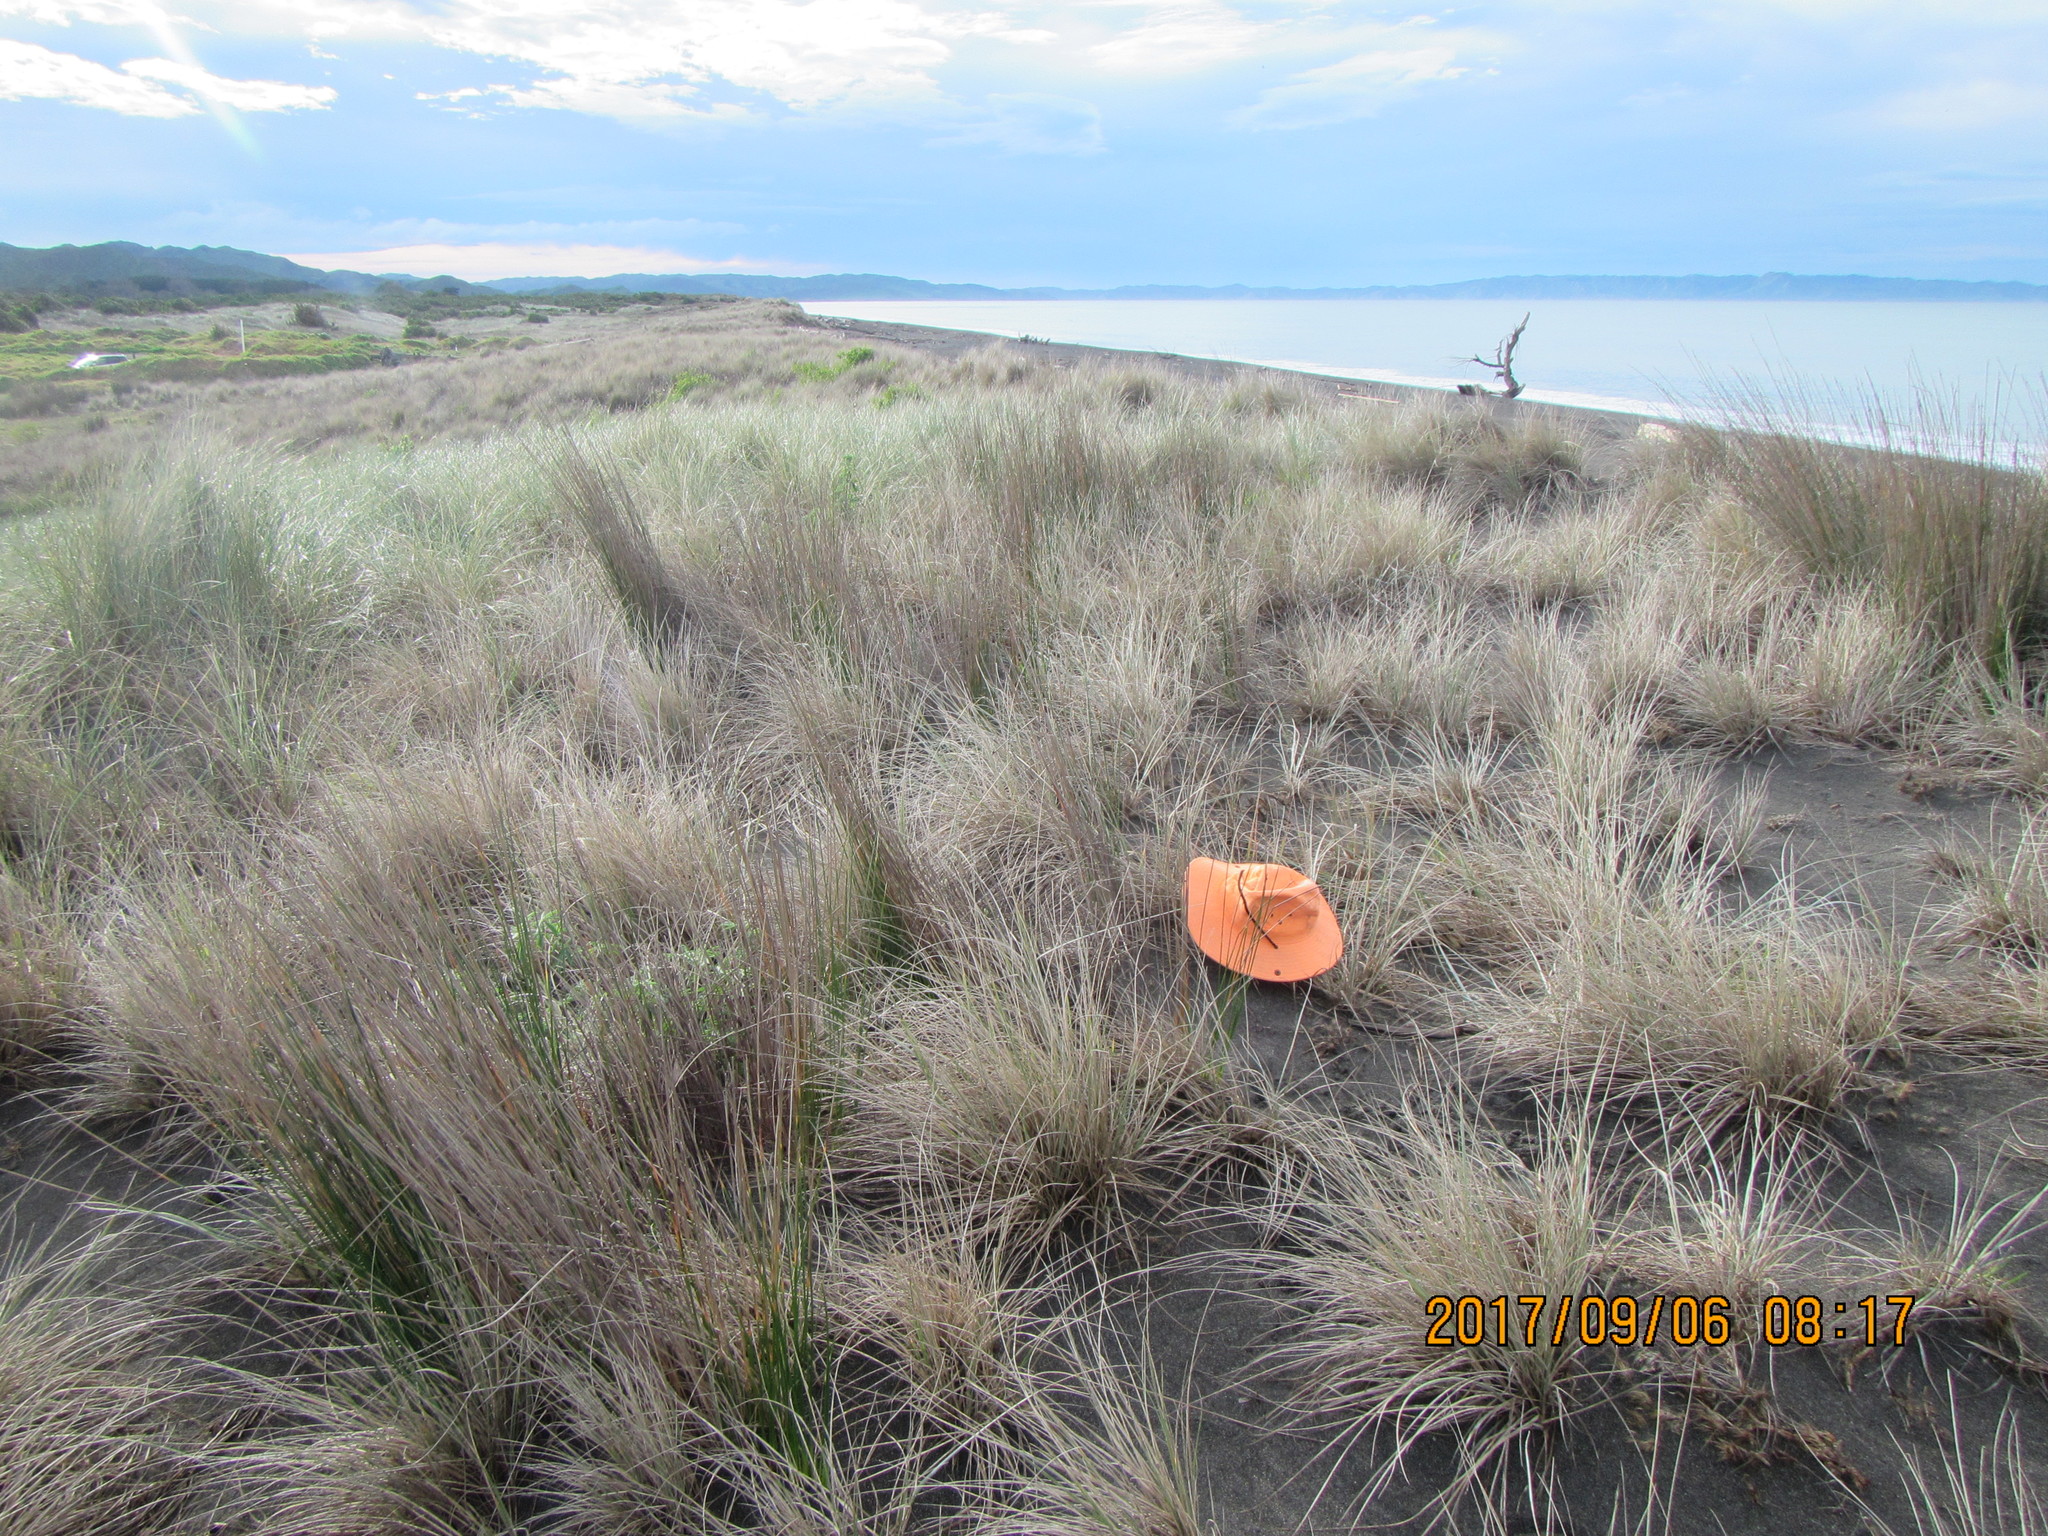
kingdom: Animalia
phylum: Arthropoda
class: Insecta
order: Dermaptera
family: Labiduridae
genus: Labidura
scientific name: Labidura riparia
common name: Striped earwig
